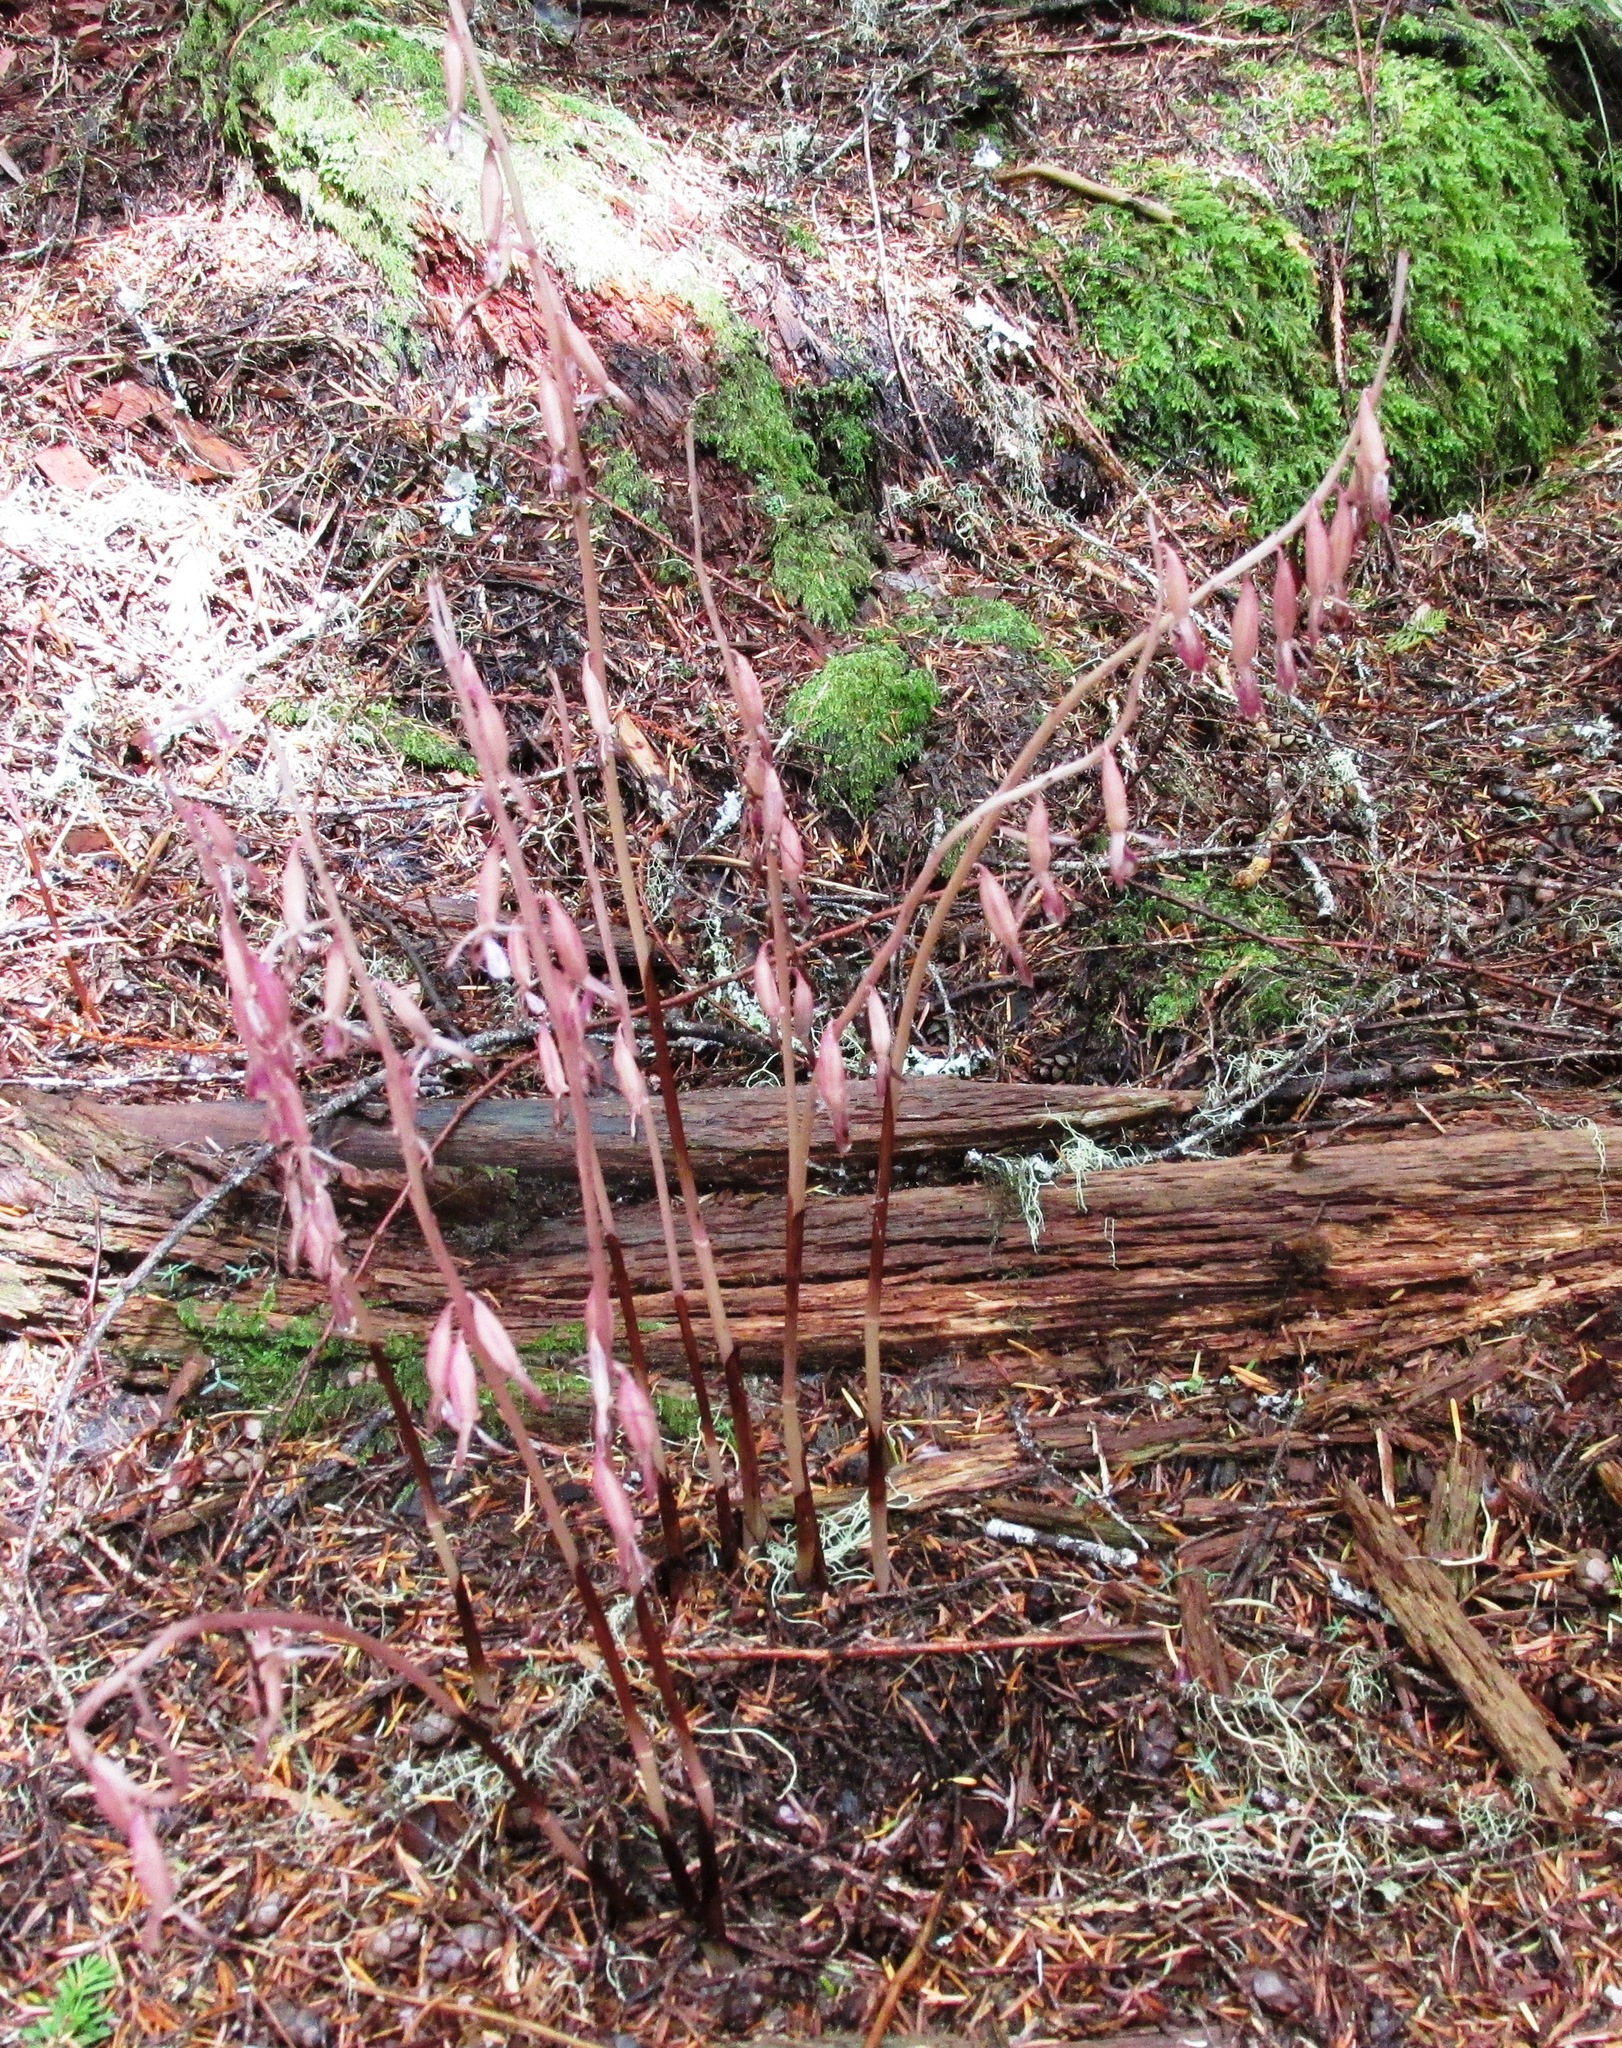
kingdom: Plantae
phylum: Tracheophyta
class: Liliopsida
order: Asparagales
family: Orchidaceae
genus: Corallorhiza
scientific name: Corallorhiza mertensiana
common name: Pacific coralroot
